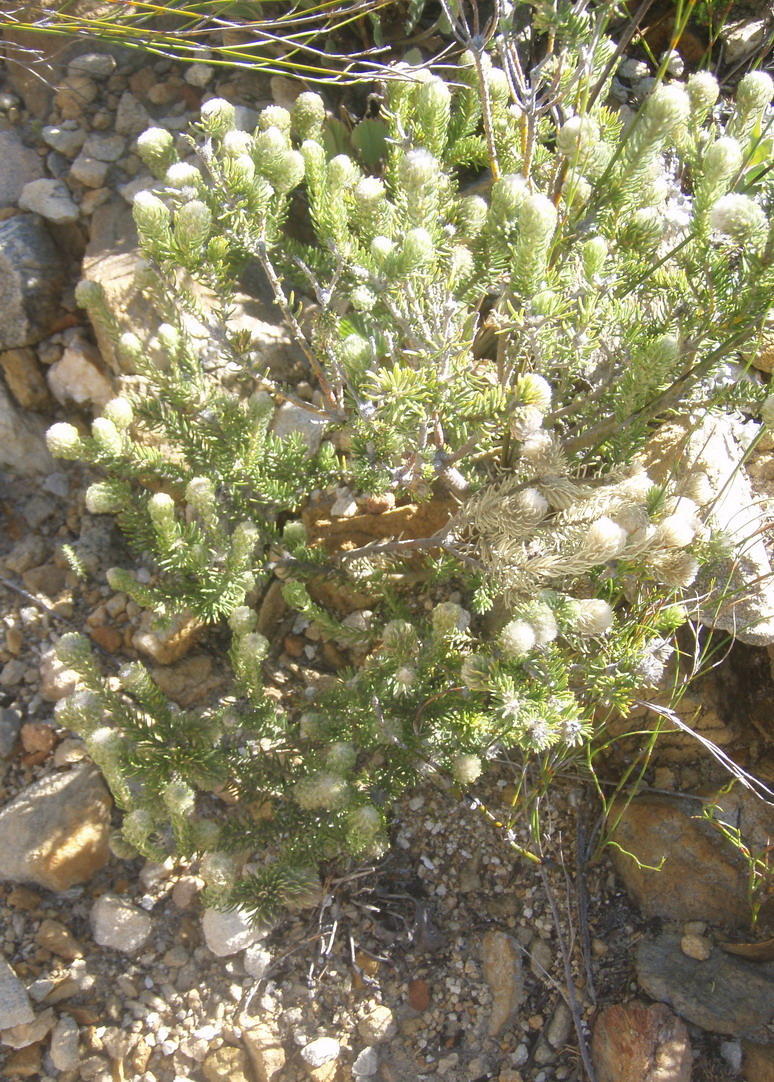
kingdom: Plantae
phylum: Tracheophyta
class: Magnoliopsida
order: Rosales
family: Rhamnaceae
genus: Phylica
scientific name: Phylica nigromontana
